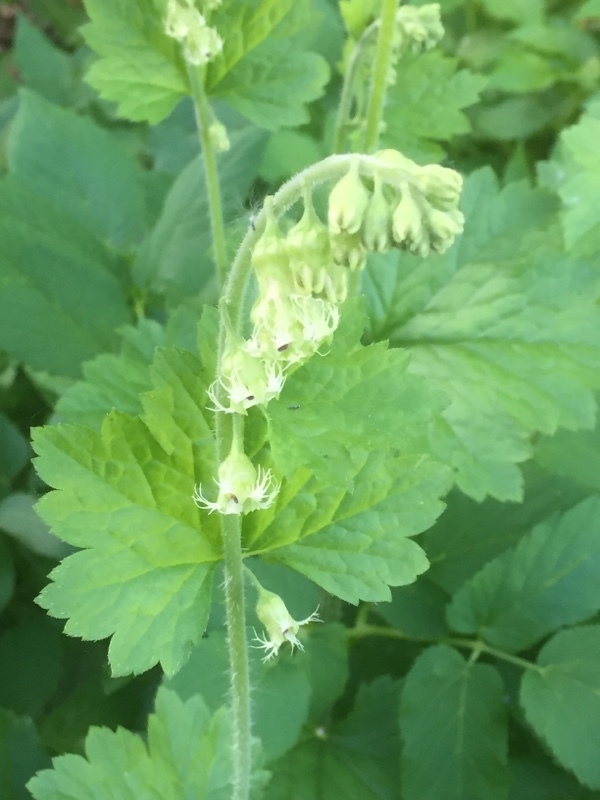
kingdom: Plantae
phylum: Tracheophyta
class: Magnoliopsida
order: Saxifragales
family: Saxifragaceae
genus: Tellima
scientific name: Tellima grandiflora
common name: Fringecups
